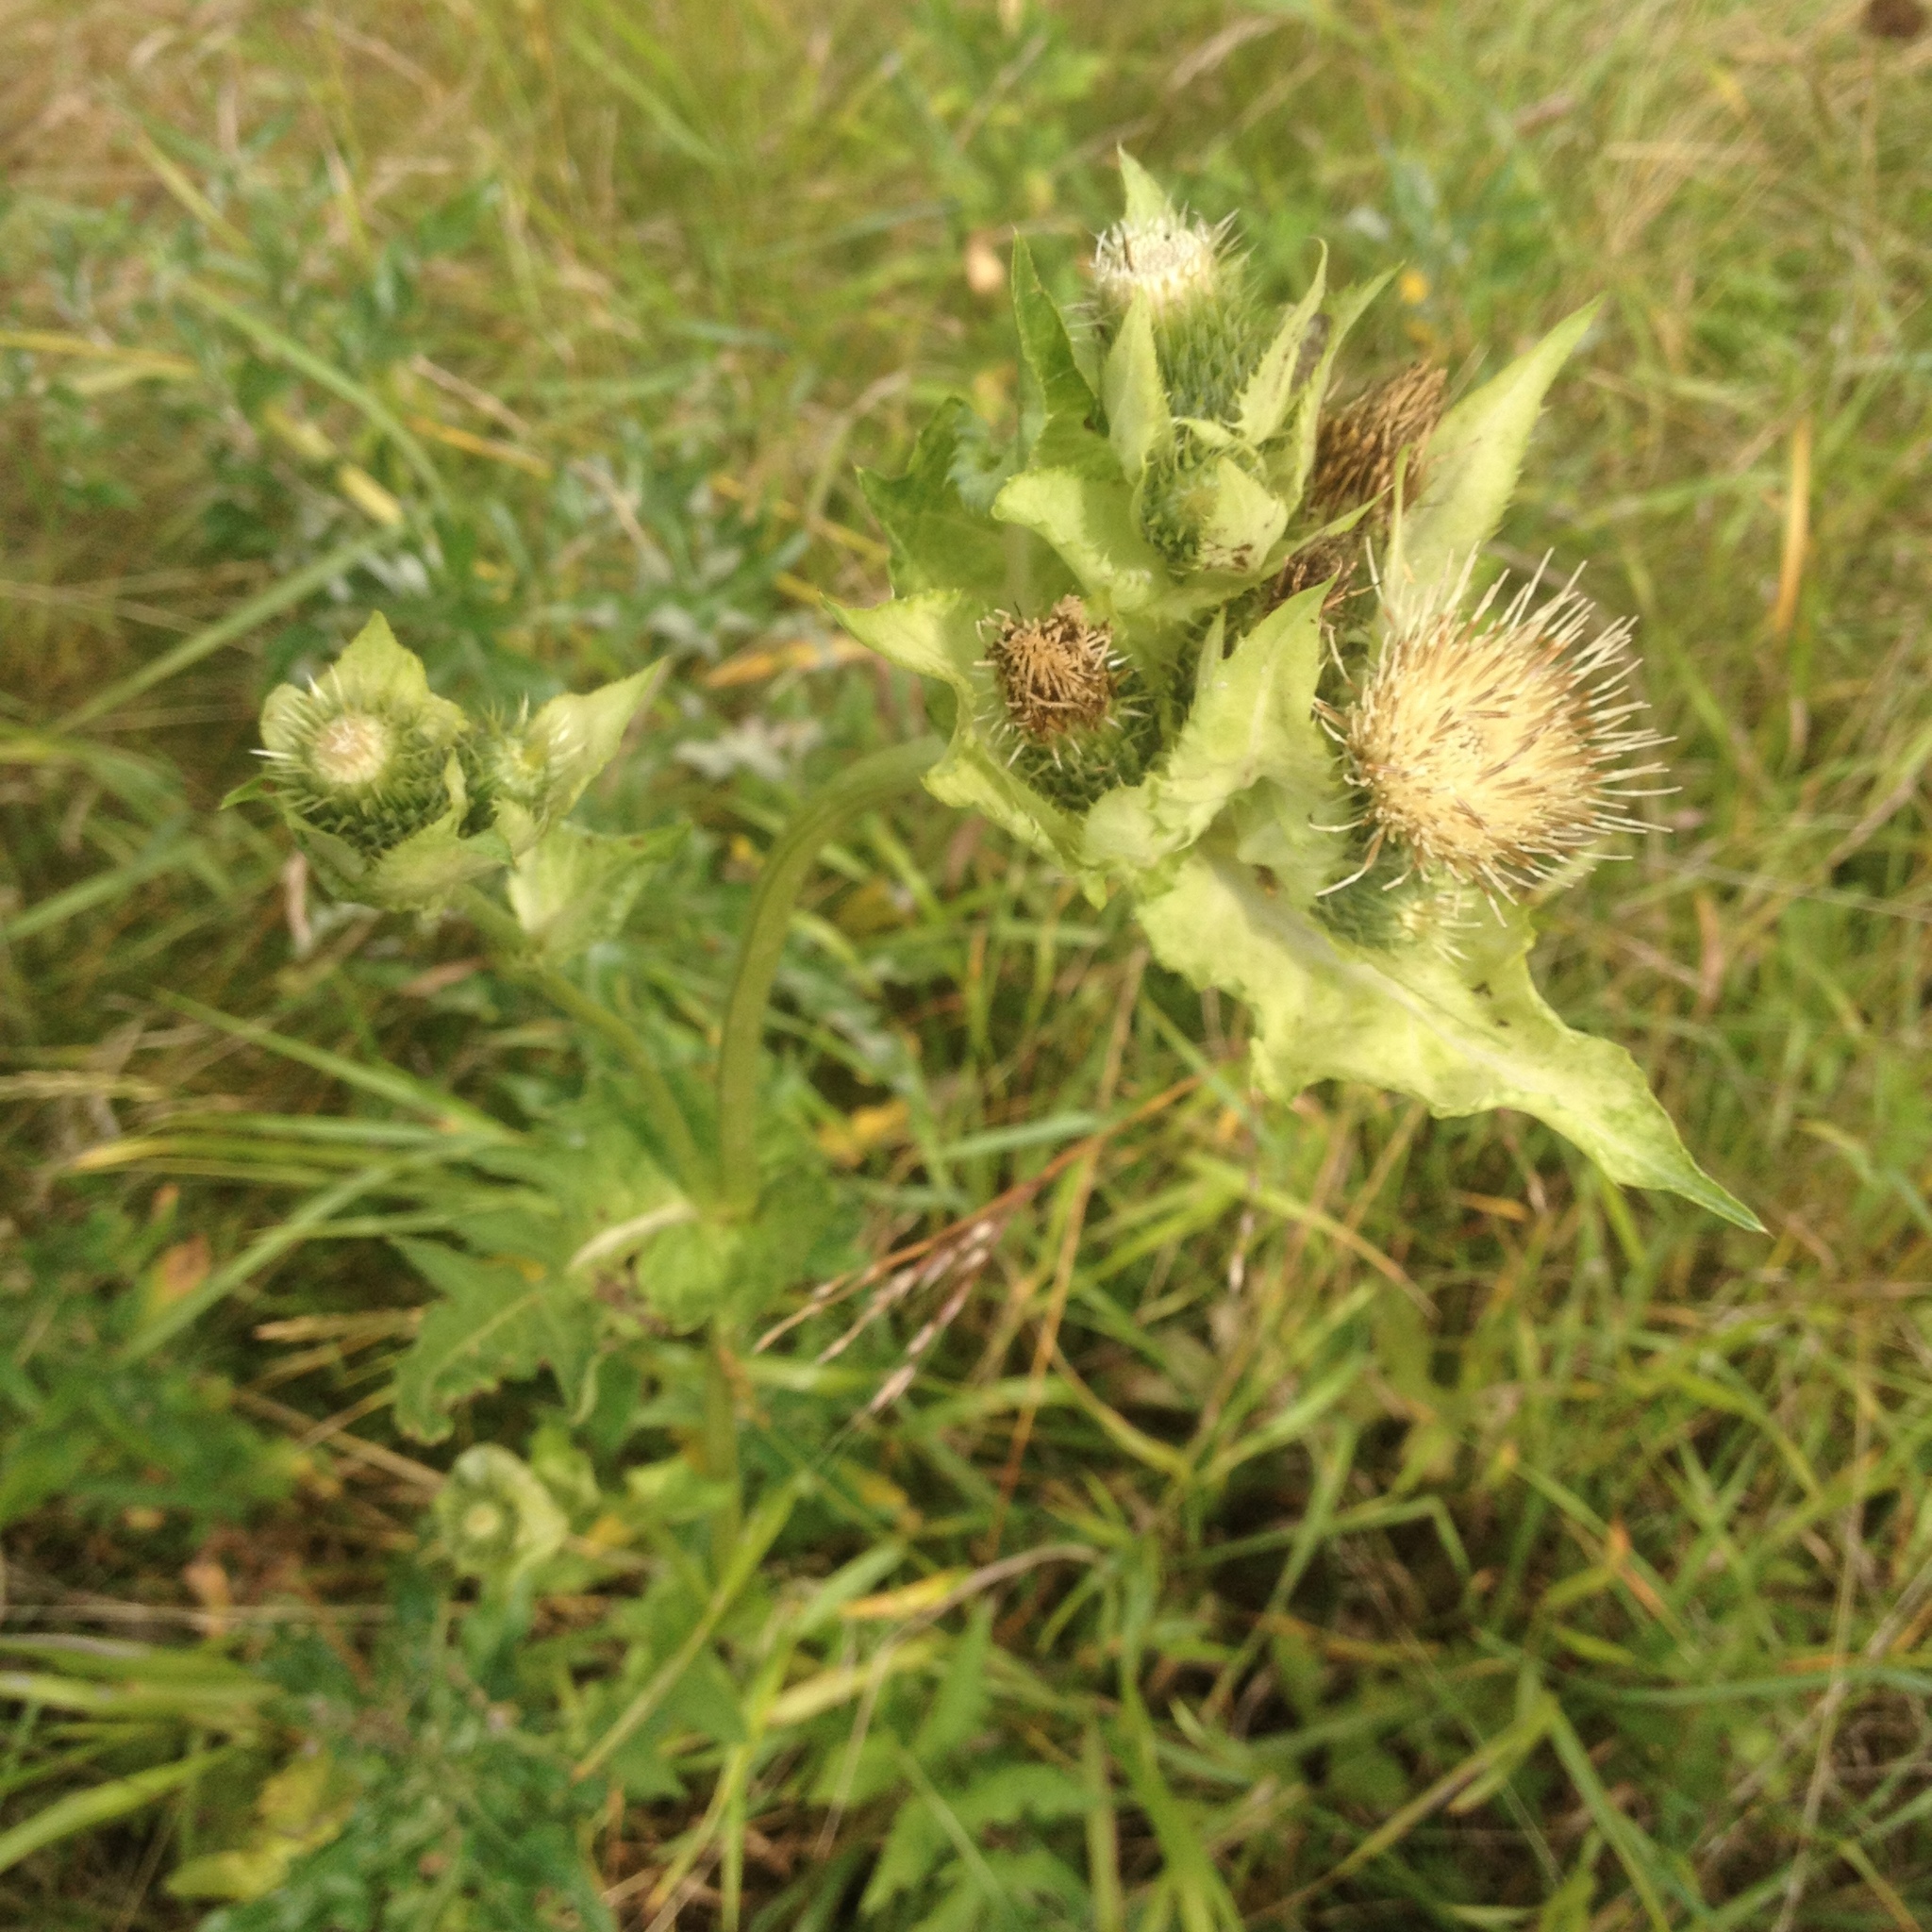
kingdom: Plantae
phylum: Tracheophyta
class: Magnoliopsida
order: Asterales
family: Asteraceae
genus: Cirsium
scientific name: Cirsium oleraceum
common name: Cabbage thistle
